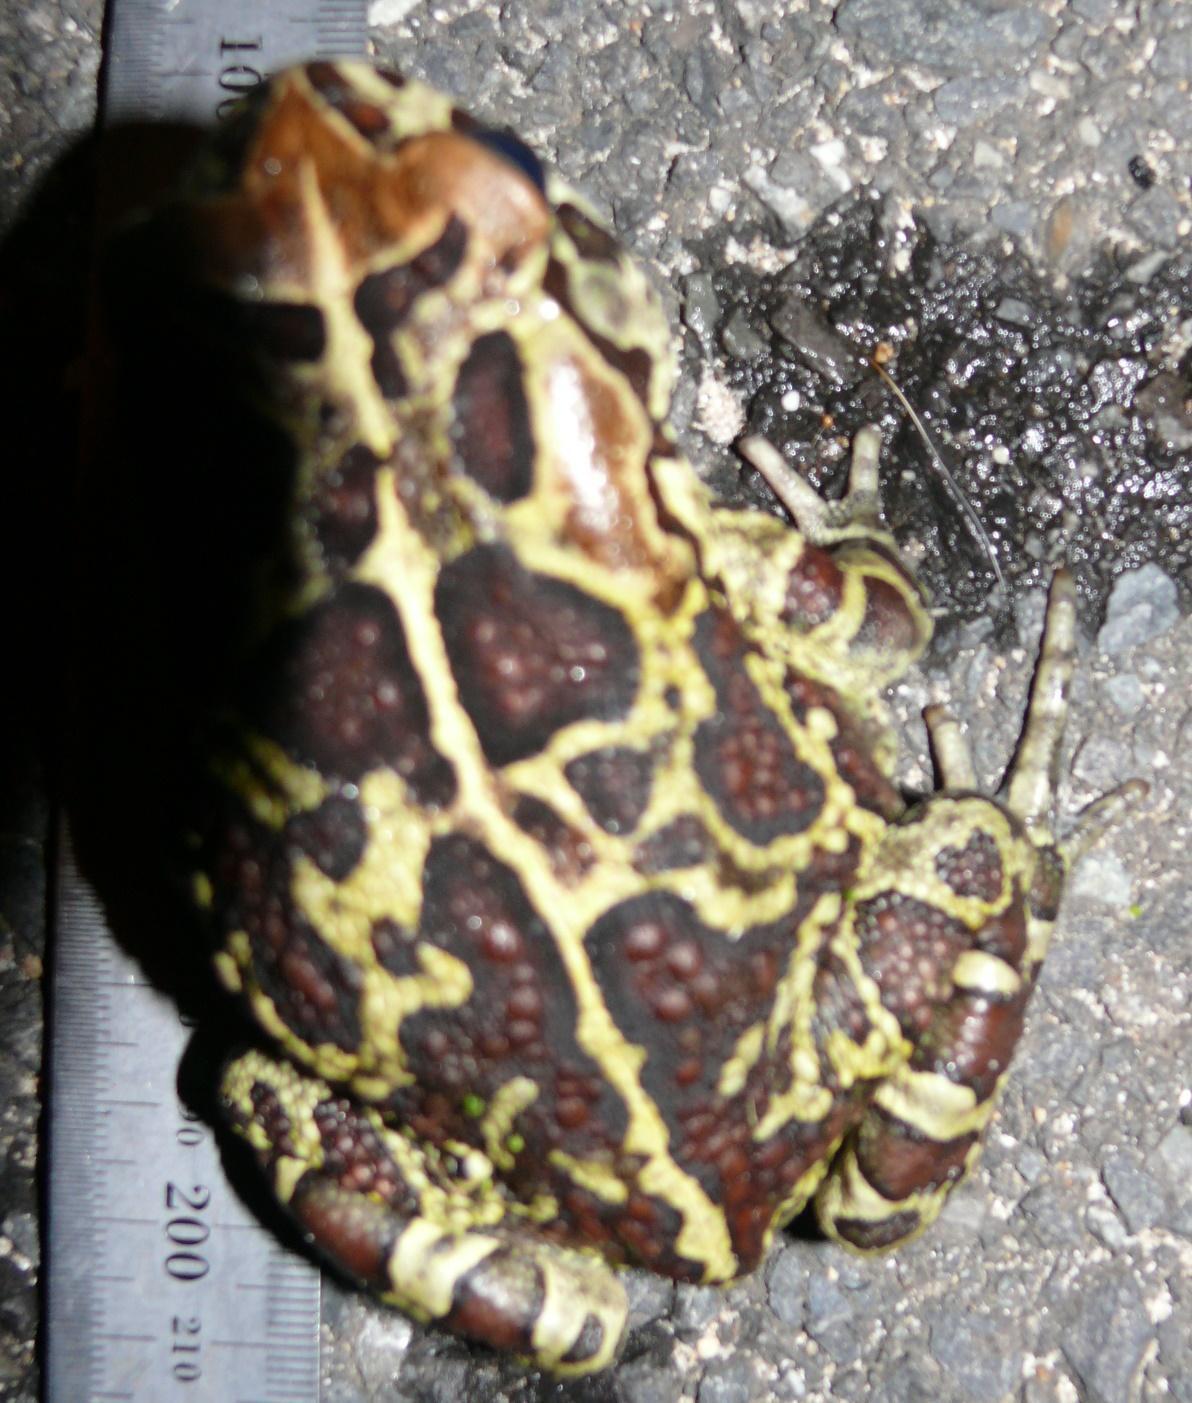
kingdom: Animalia
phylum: Chordata
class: Amphibia
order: Anura
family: Bufonidae
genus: Sclerophrys
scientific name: Sclerophrys pantherina
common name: Panther toad
